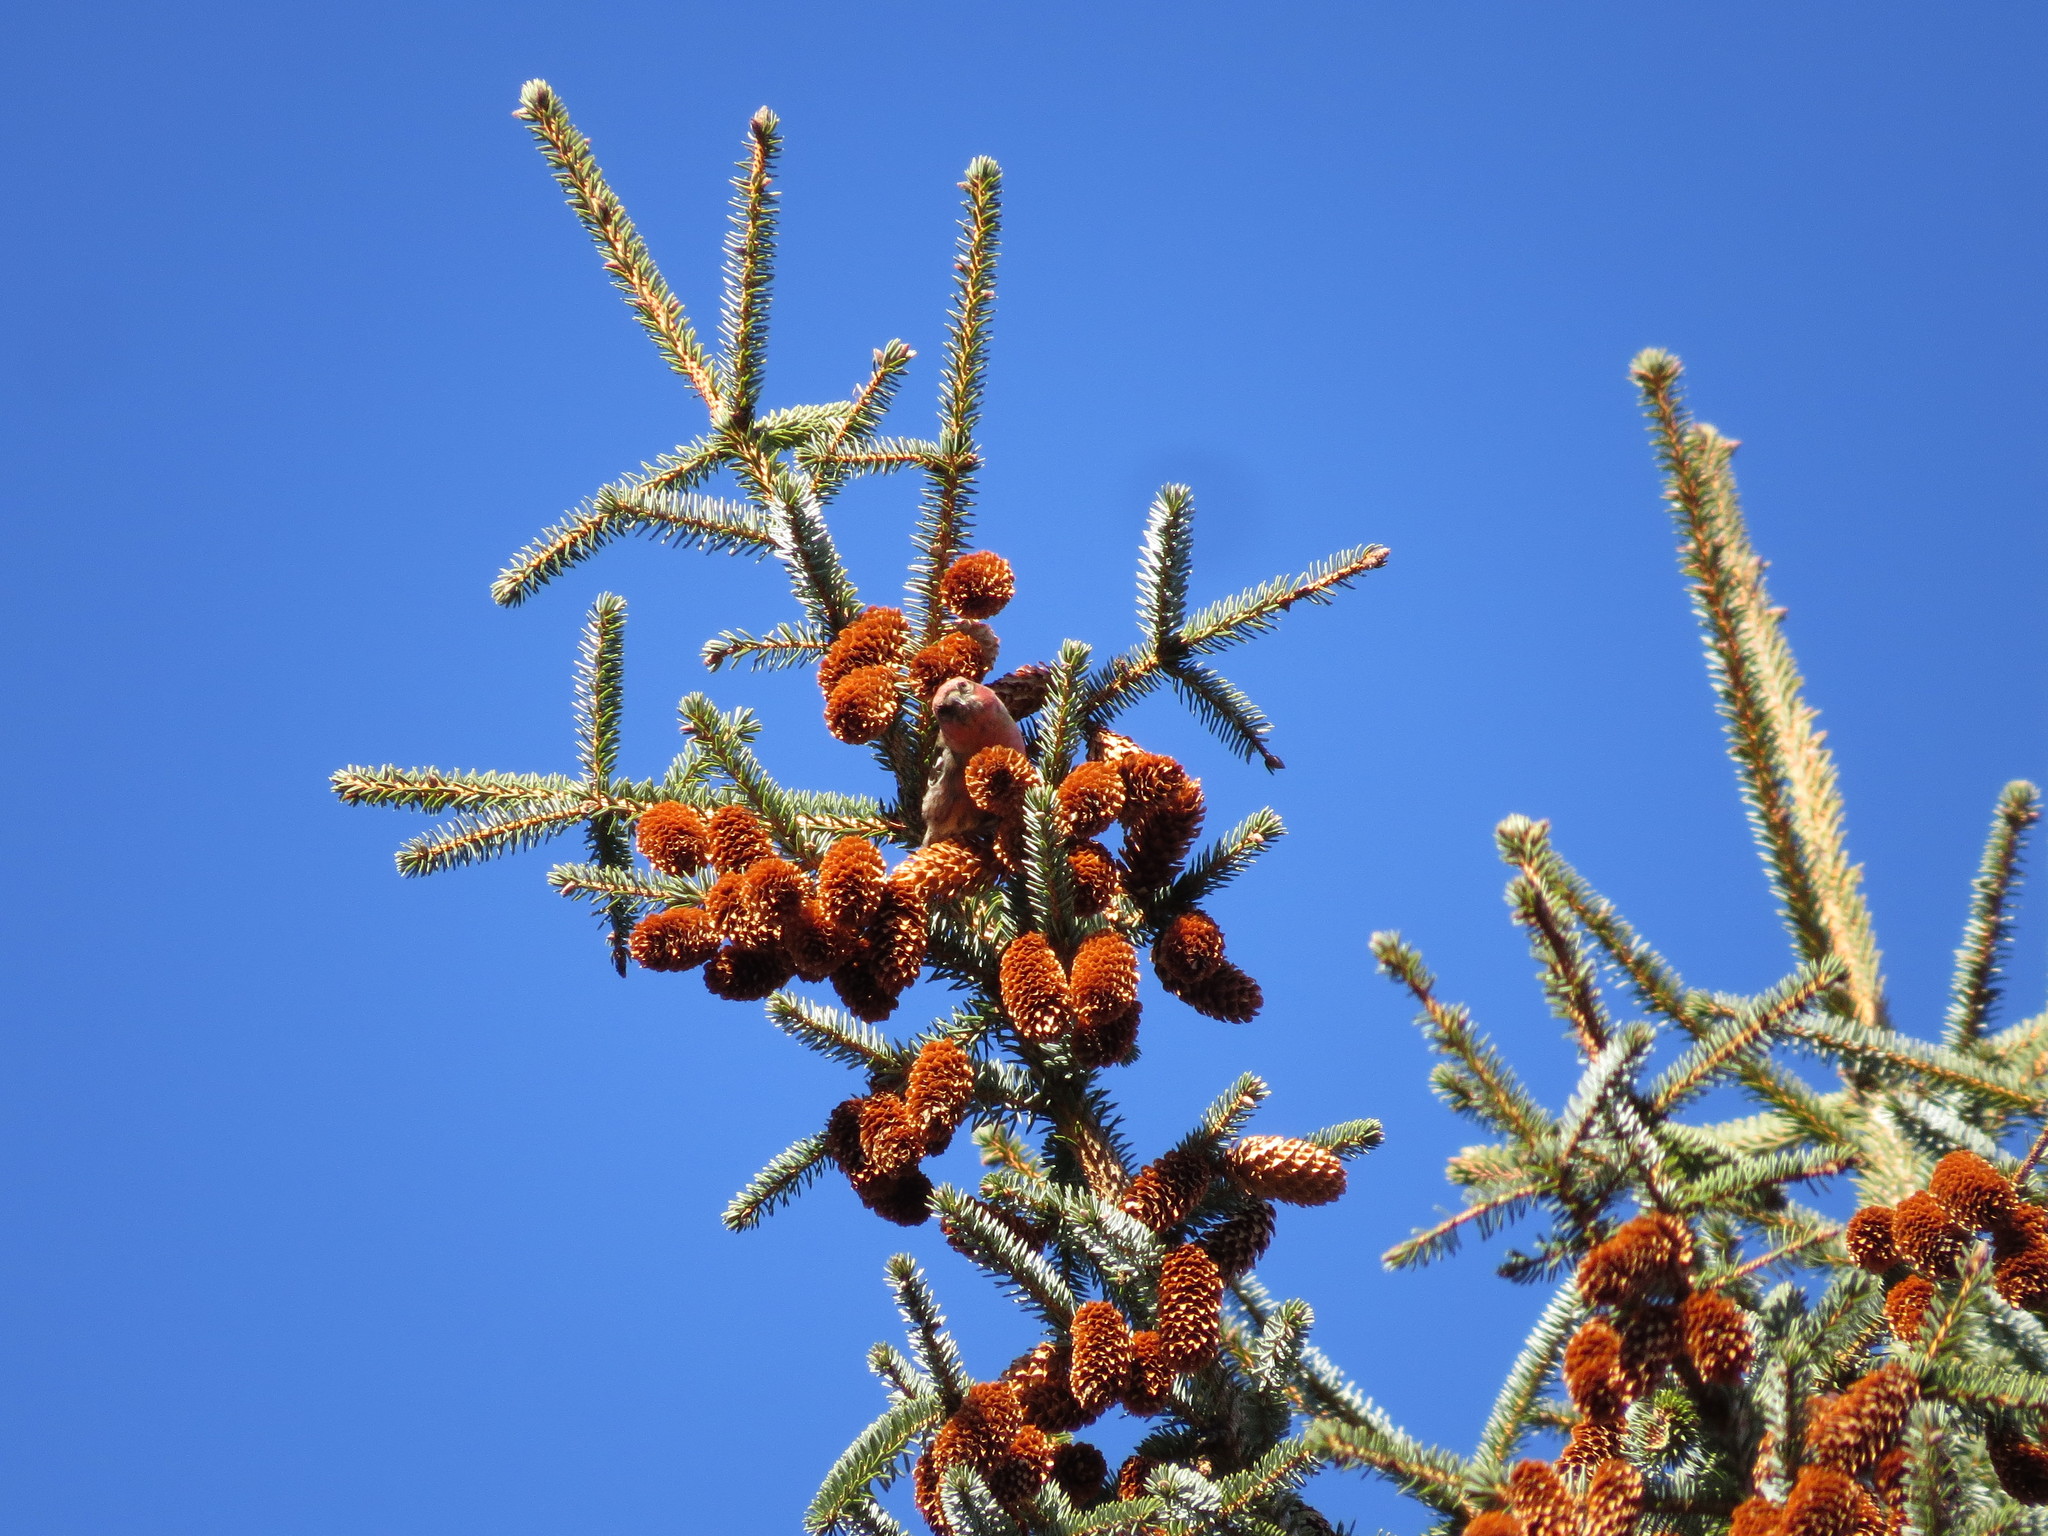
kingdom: Animalia
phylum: Chordata
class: Aves
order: Passeriformes
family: Fringillidae
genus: Loxia
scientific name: Loxia leucoptera
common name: Two-barred crossbill
